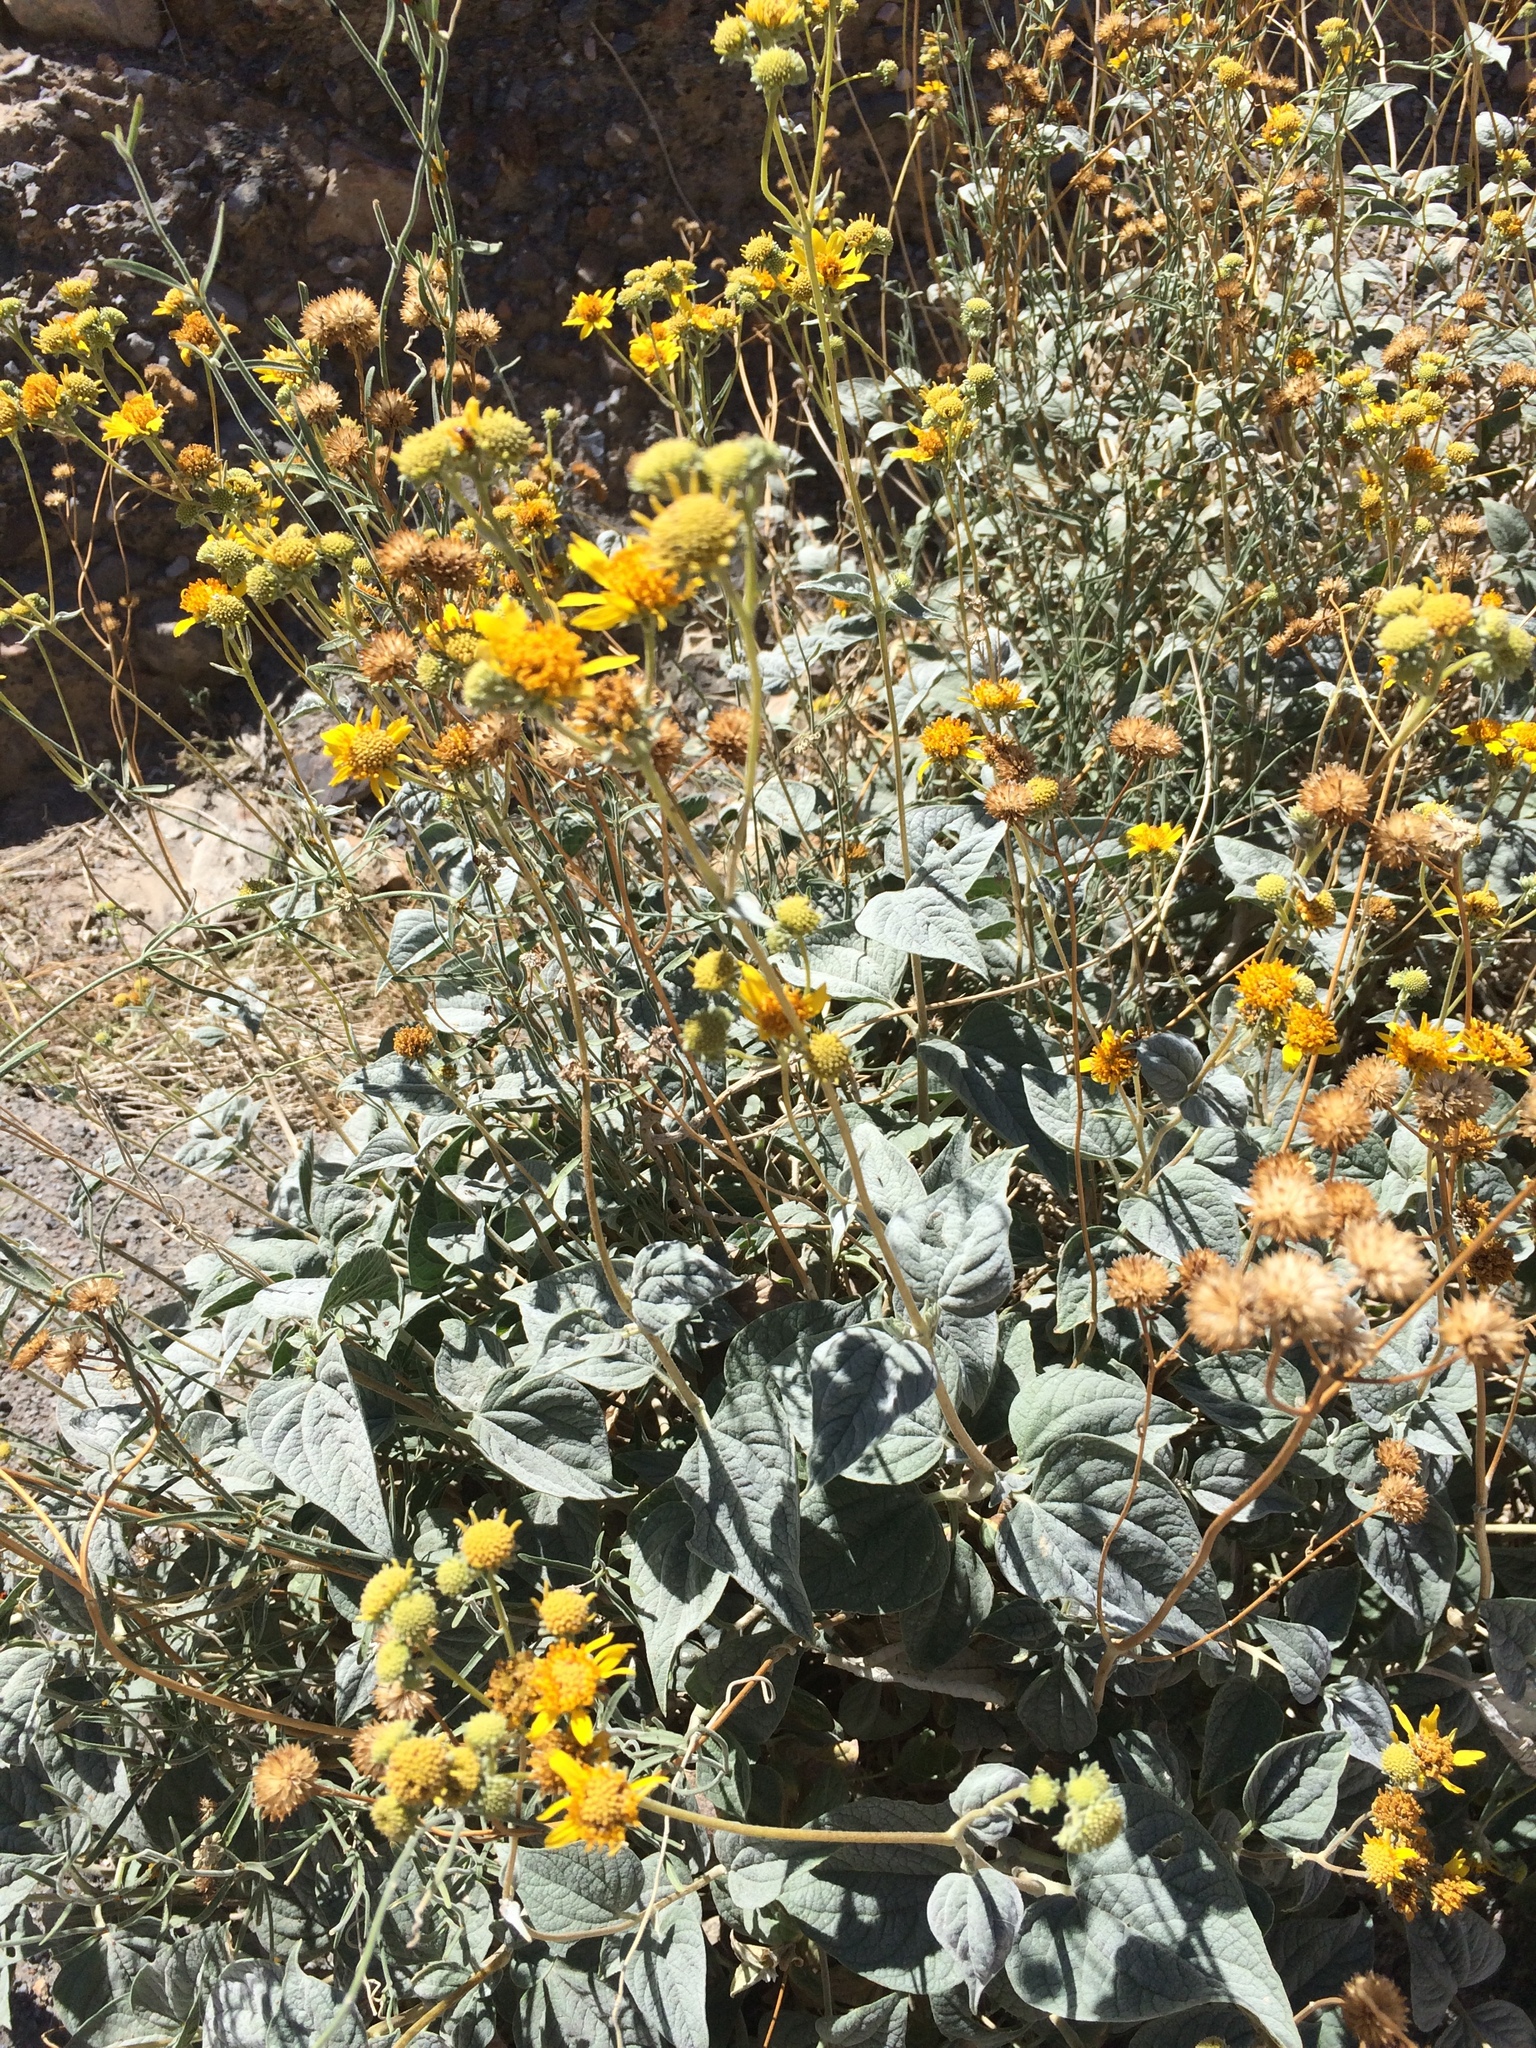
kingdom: Plantae
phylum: Tracheophyta
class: Magnoliopsida
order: Asterales
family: Asteraceae
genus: Bahiopsis
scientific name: Bahiopsis reticulata
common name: Death valley goldeneye
